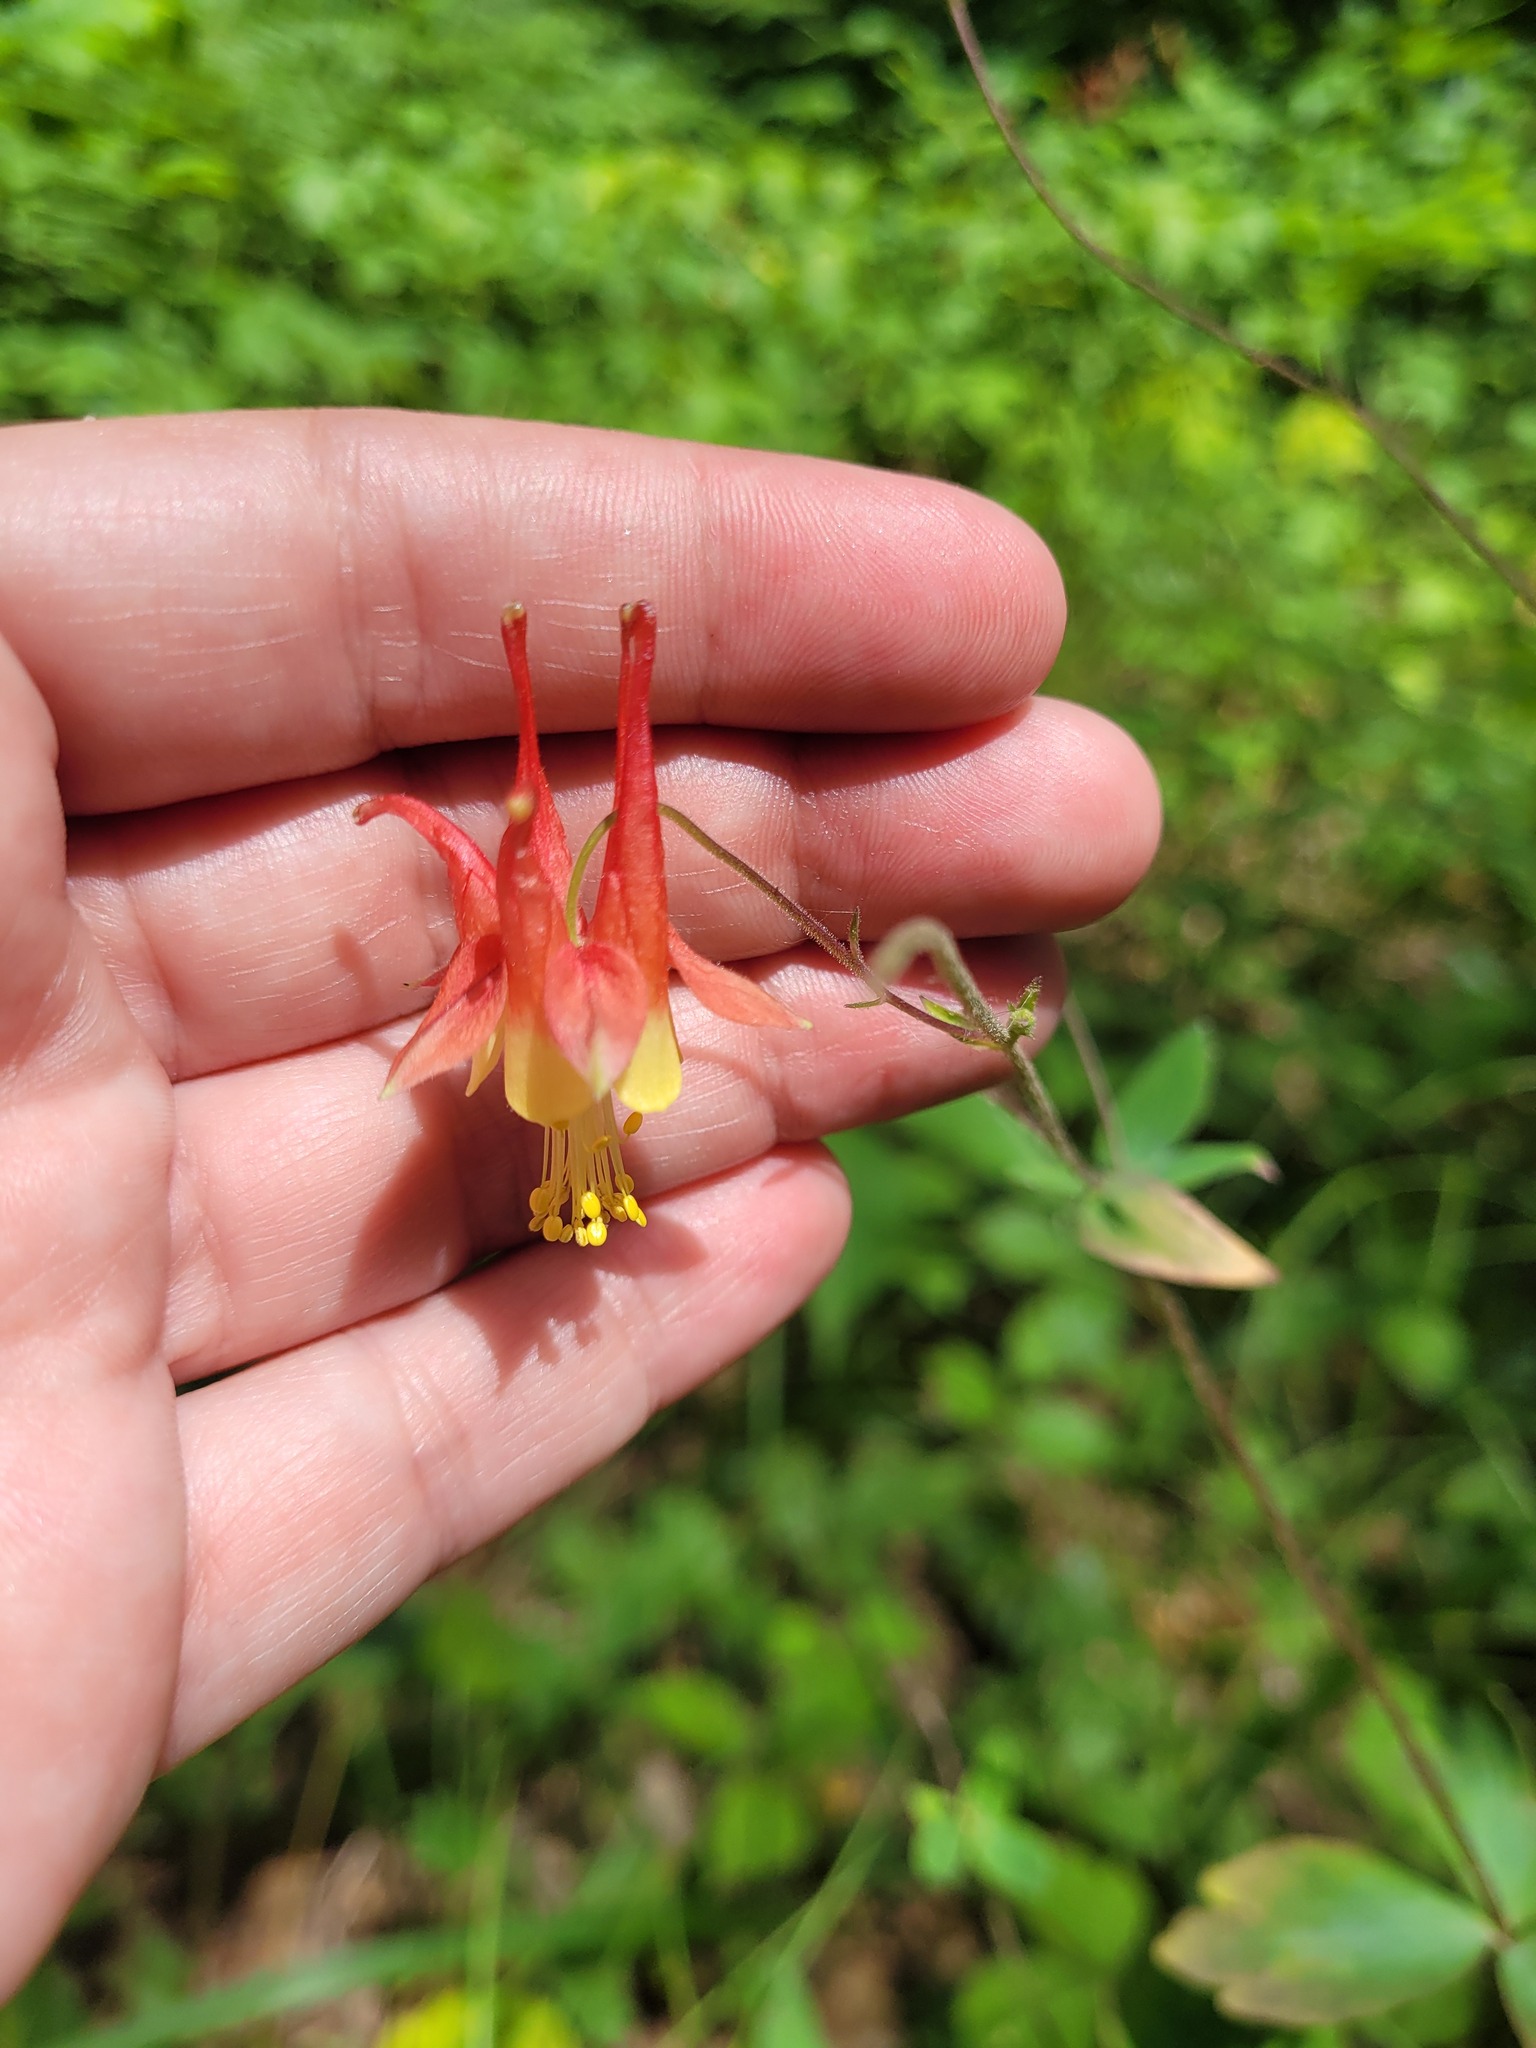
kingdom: Plantae
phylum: Tracheophyta
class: Magnoliopsida
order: Ranunculales
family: Ranunculaceae
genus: Aquilegia
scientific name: Aquilegia canadensis
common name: American columbine
